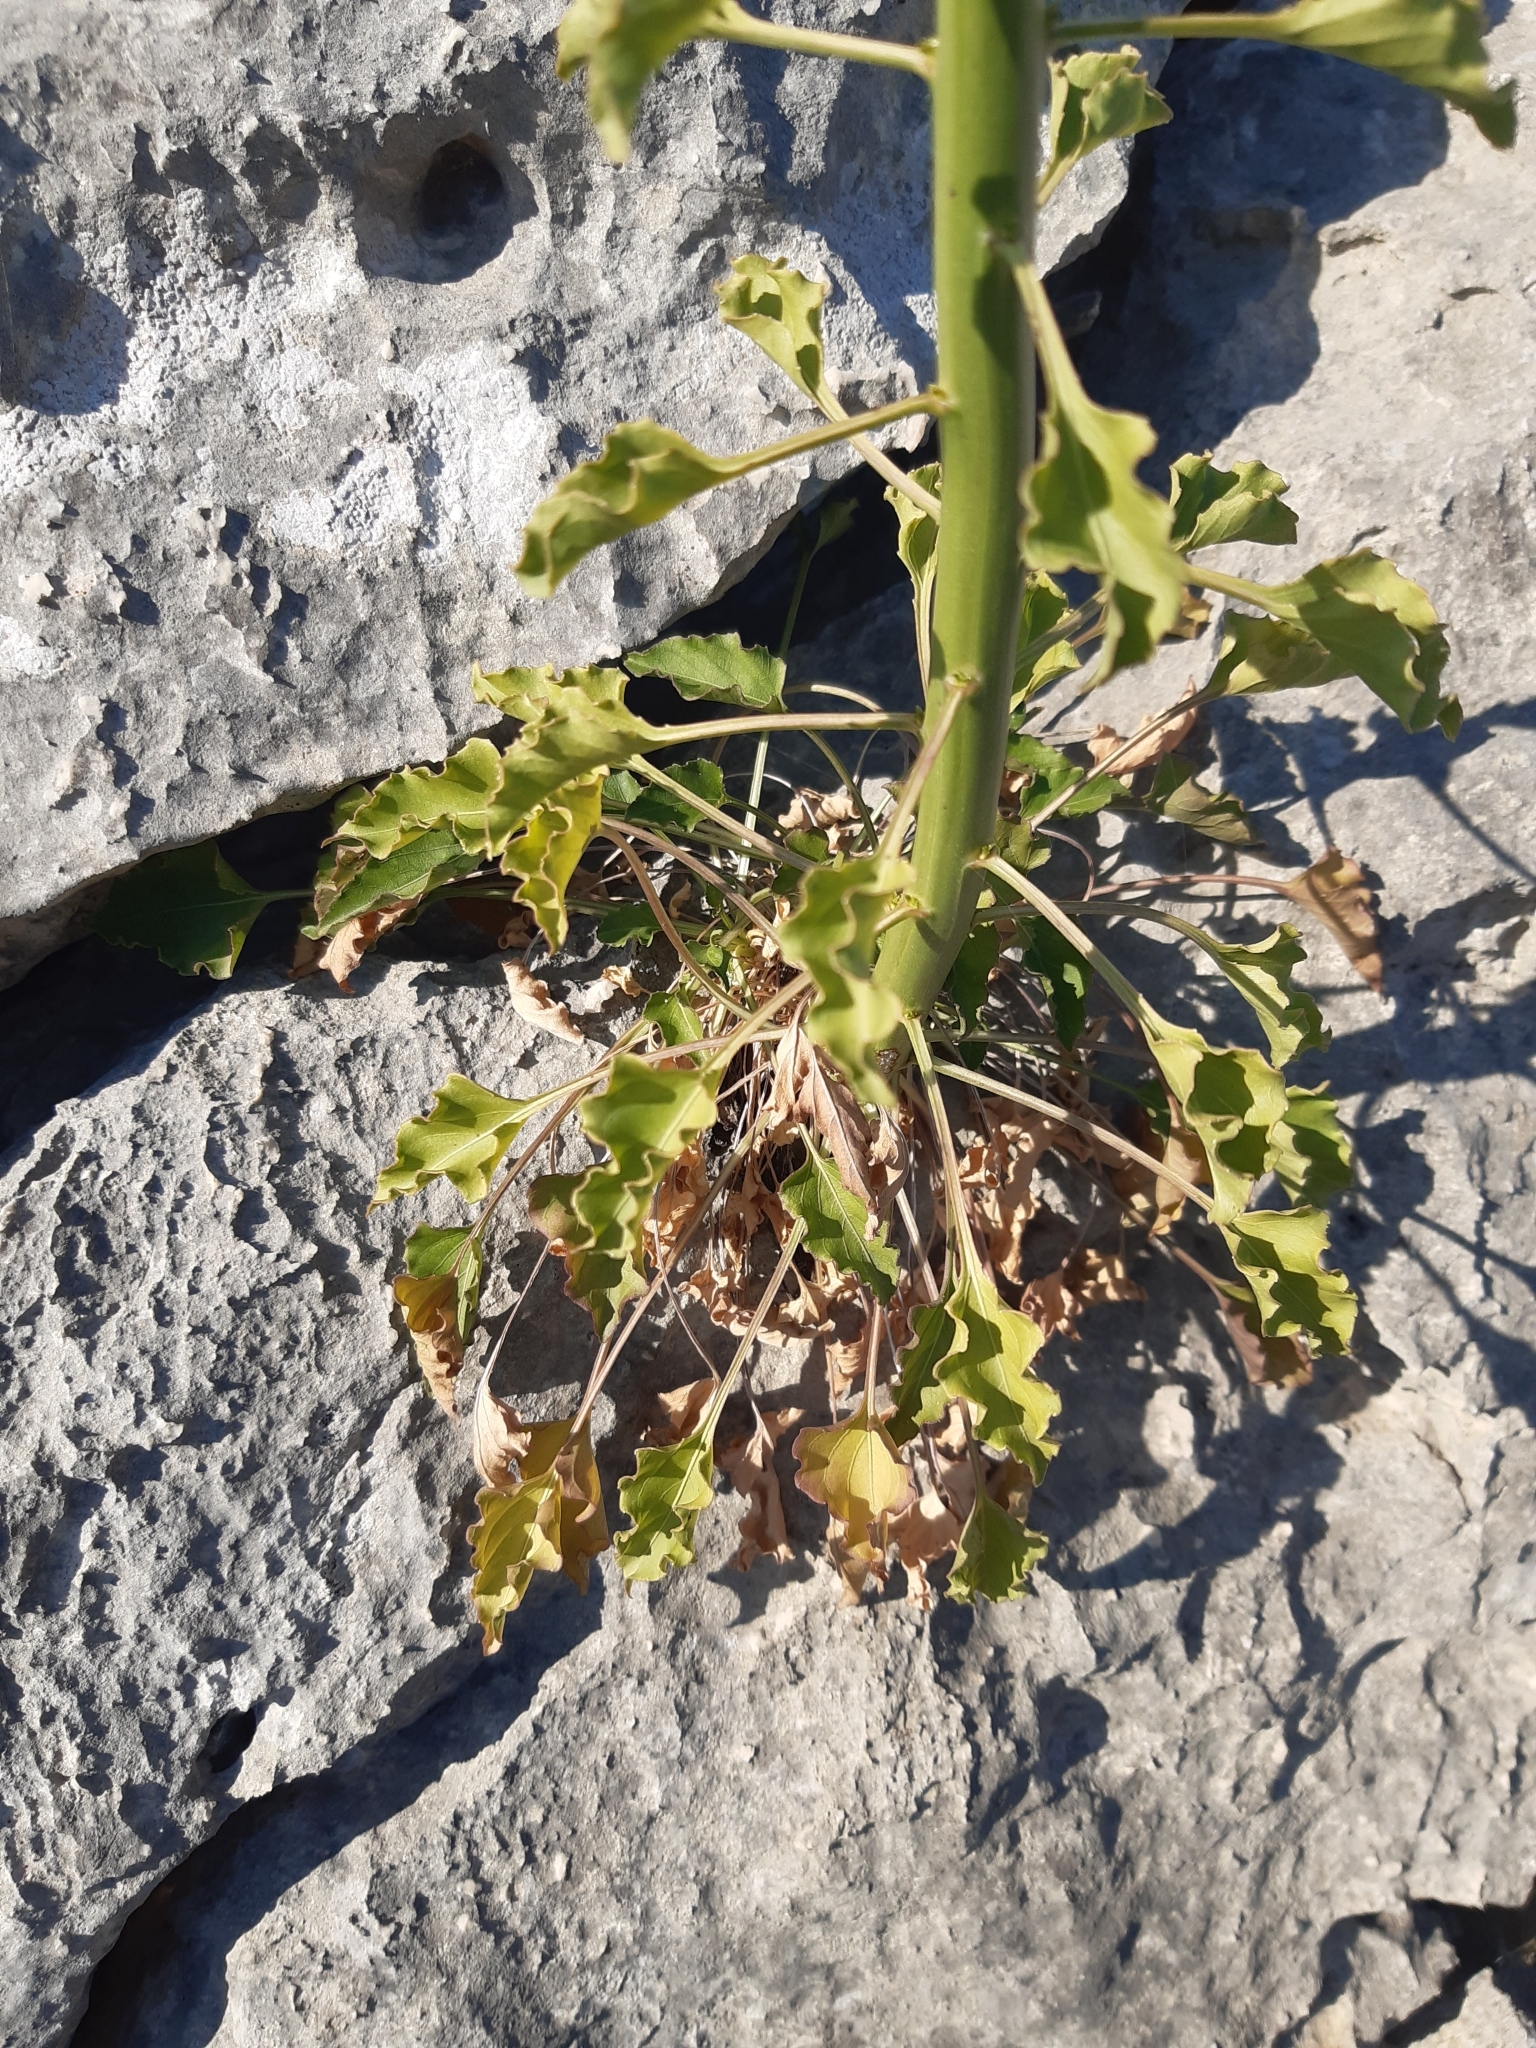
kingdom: Plantae
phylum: Tracheophyta
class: Magnoliopsida
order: Asterales
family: Campanulaceae
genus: Campanula
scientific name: Campanula pyramidalis
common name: Chimney bellflower
